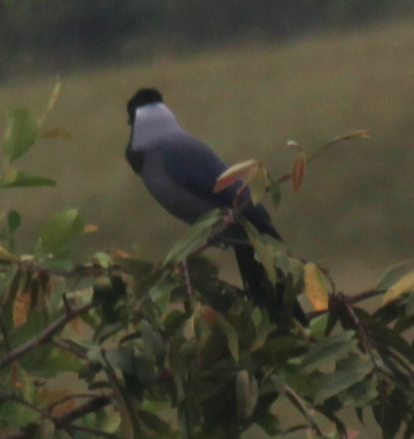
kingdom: Animalia
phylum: Chordata
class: Aves
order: Passeriformes
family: Corvidae
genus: Cyanocorax
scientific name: Cyanocorax violaceus
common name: Violaceous jay
